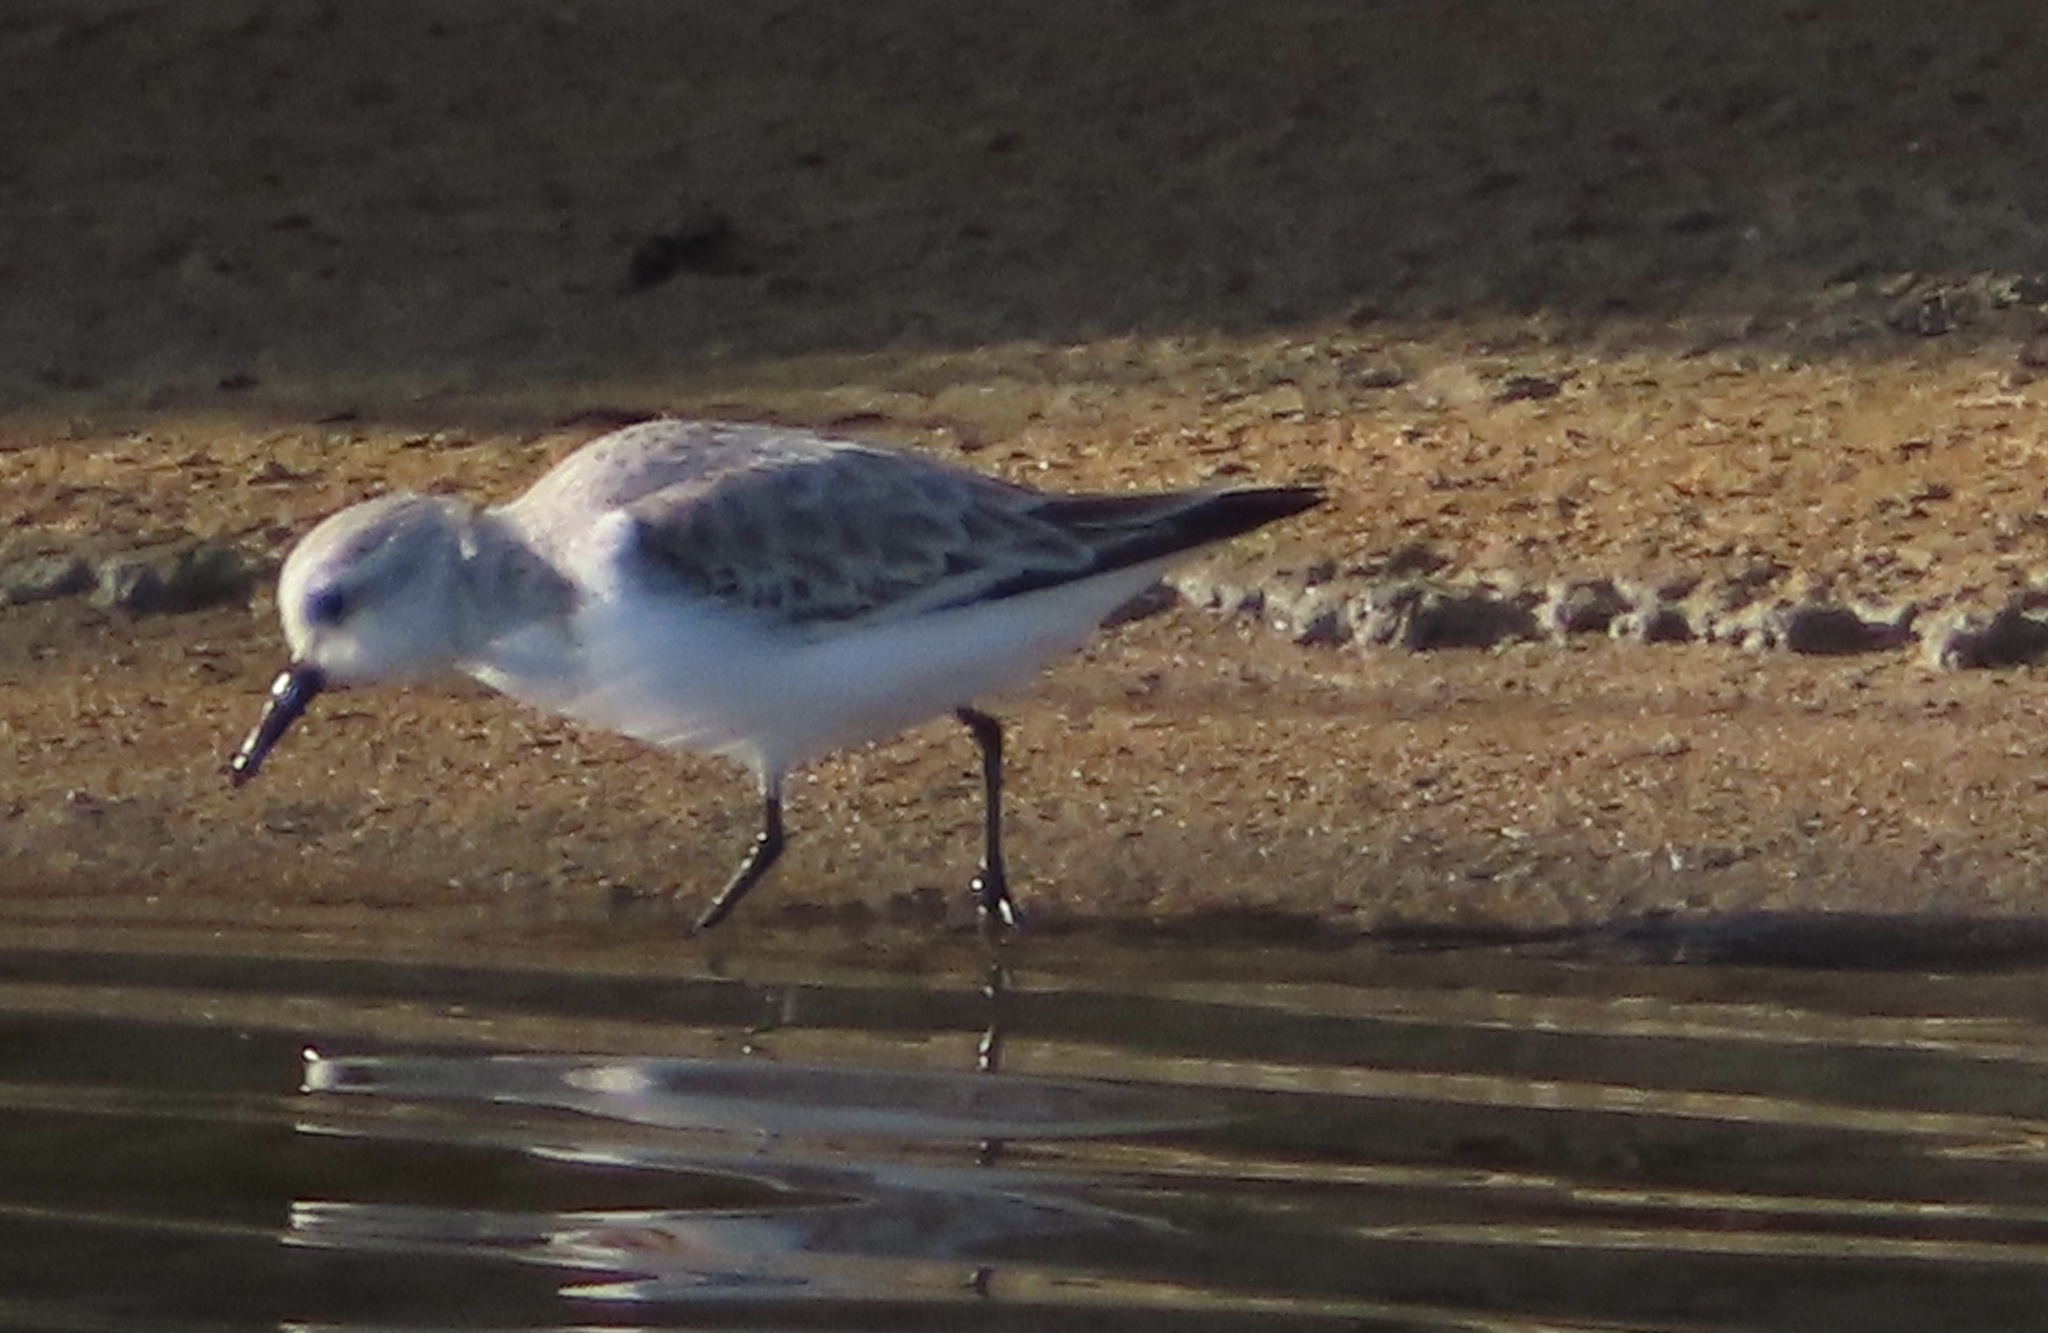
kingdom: Animalia
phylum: Chordata
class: Aves
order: Charadriiformes
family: Scolopacidae
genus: Calidris
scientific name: Calidris alba
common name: Sanderling
